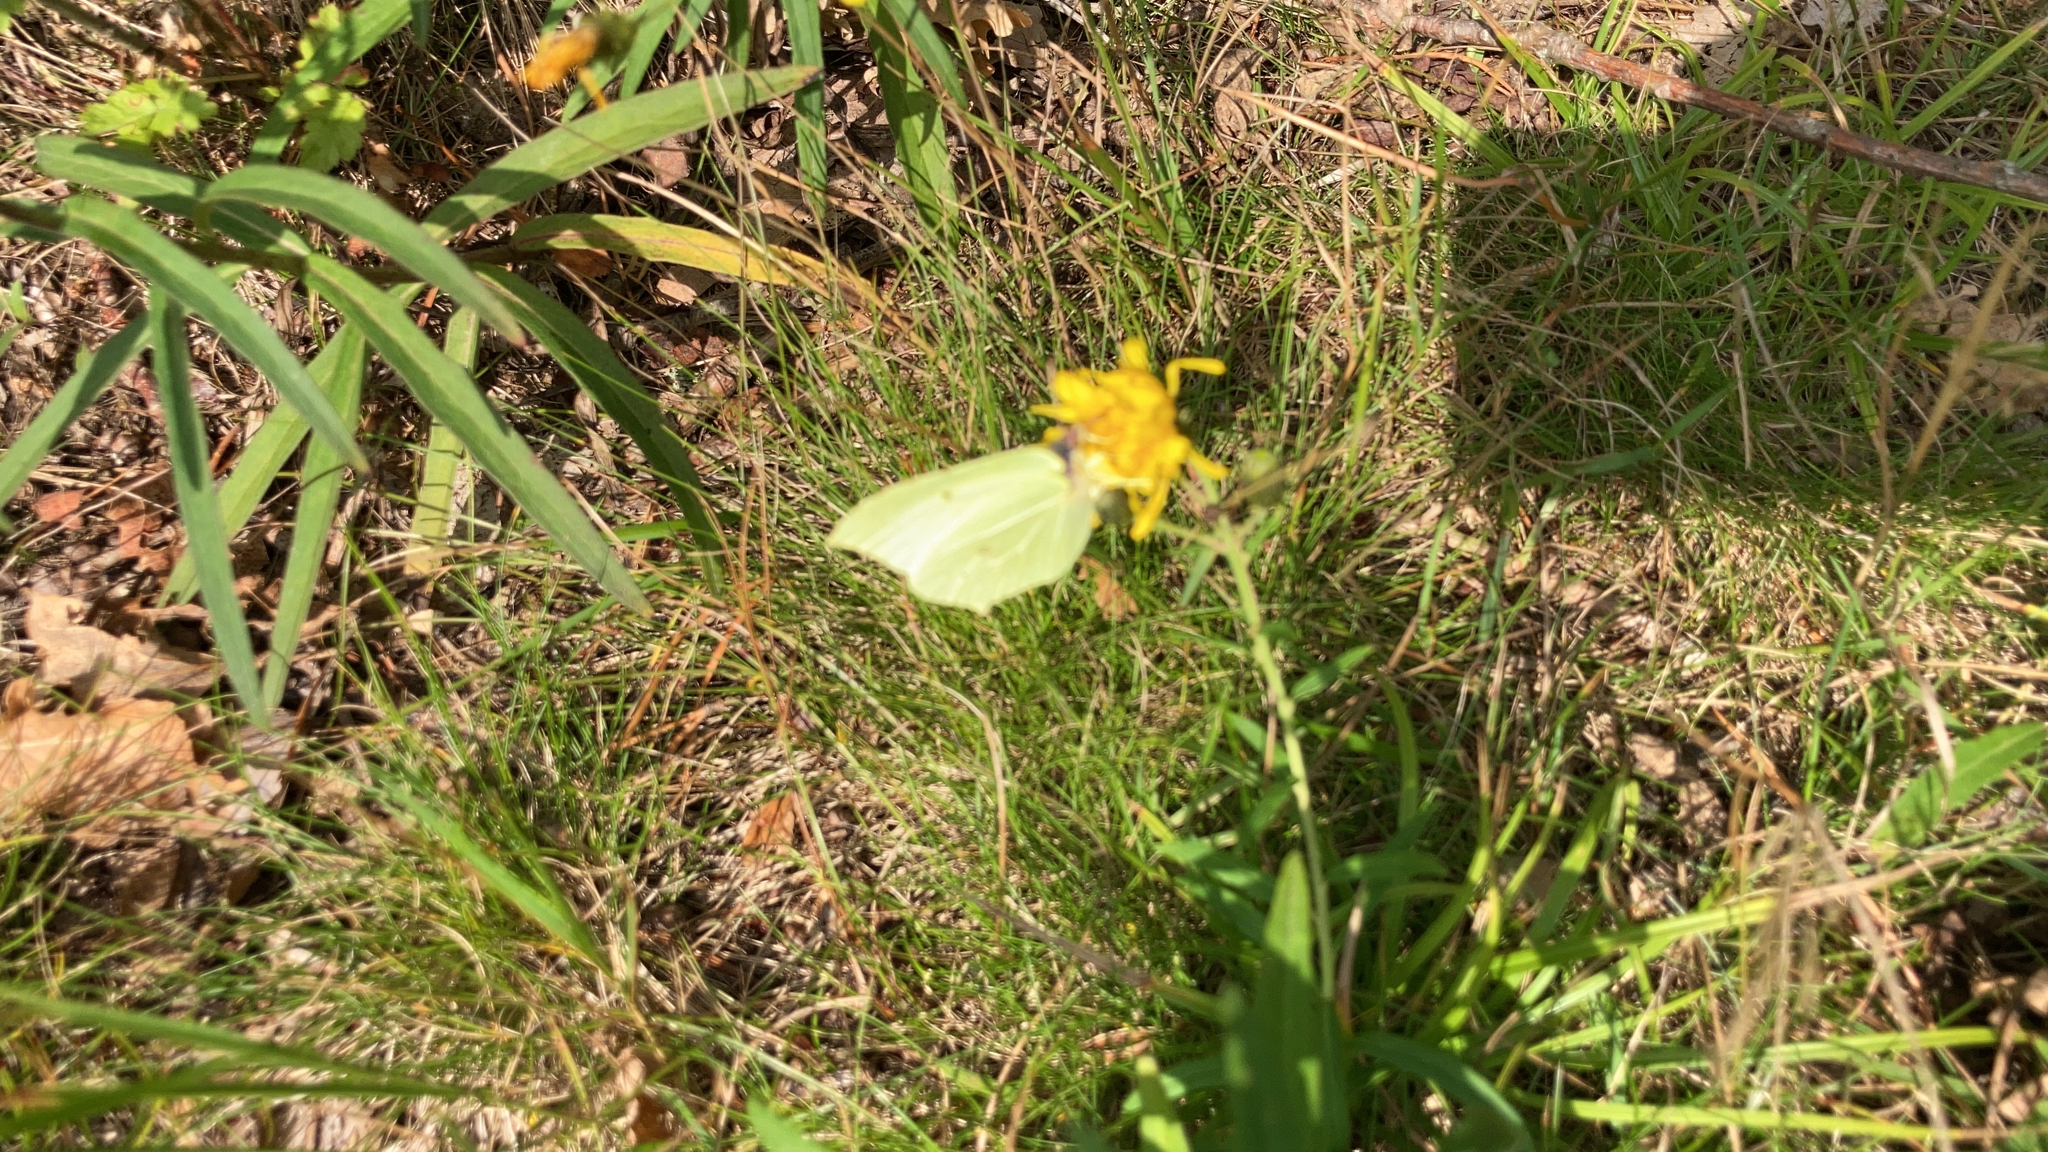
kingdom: Animalia
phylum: Arthropoda
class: Insecta
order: Lepidoptera
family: Pieridae
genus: Gonepteryx
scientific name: Gonepteryx rhamni
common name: Brimstone
